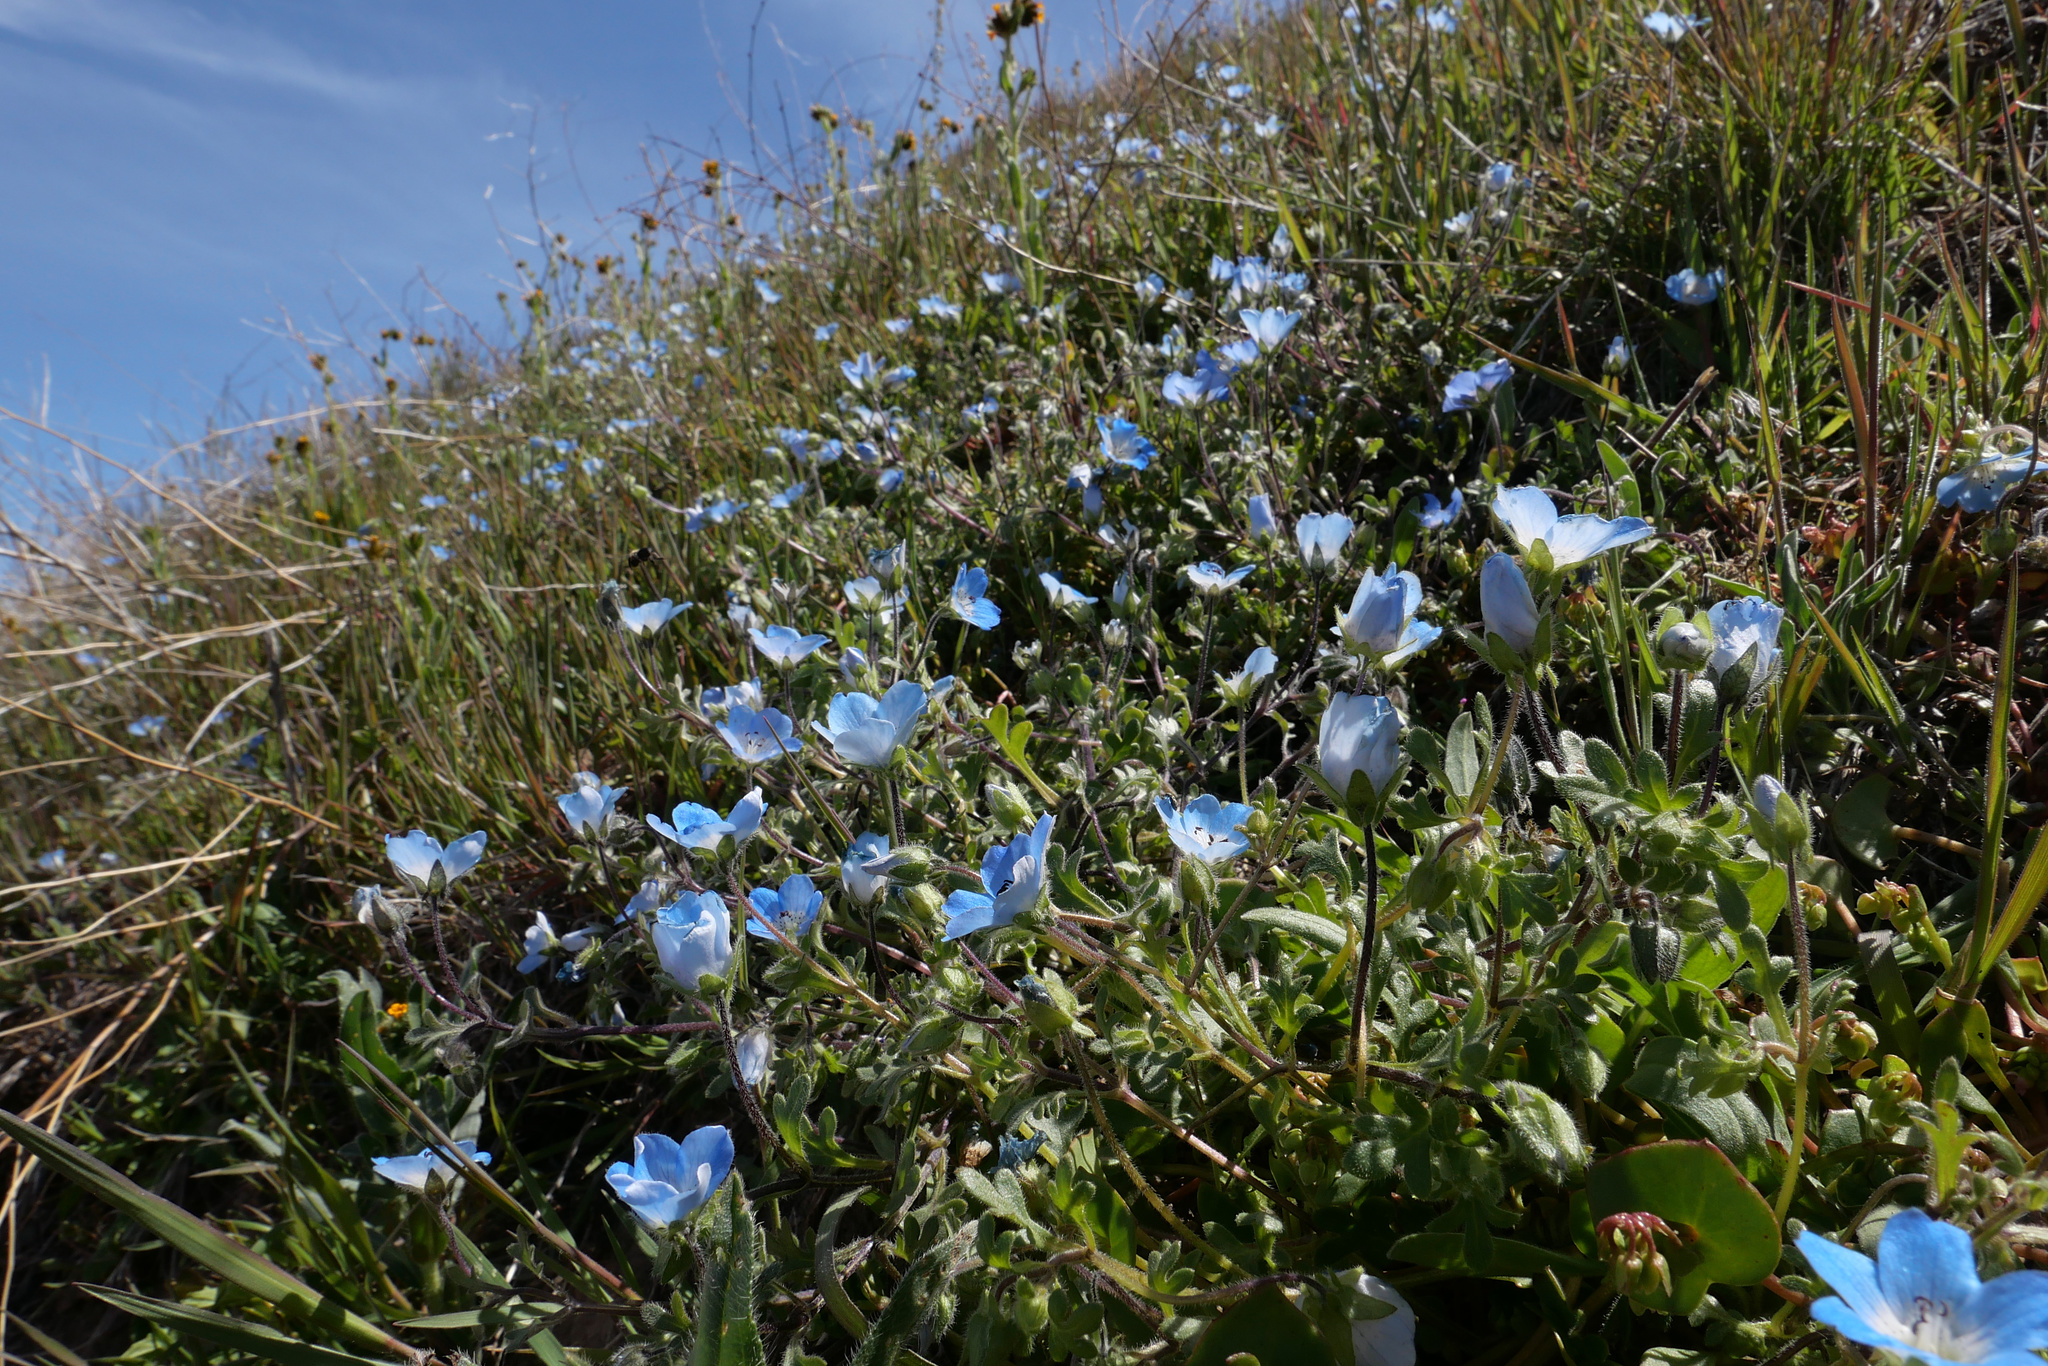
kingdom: Plantae
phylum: Tracheophyta
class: Magnoliopsida
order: Boraginales
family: Hydrophyllaceae
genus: Nemophila
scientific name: Nemophila menziesii
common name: Baby's-blue-eyes
